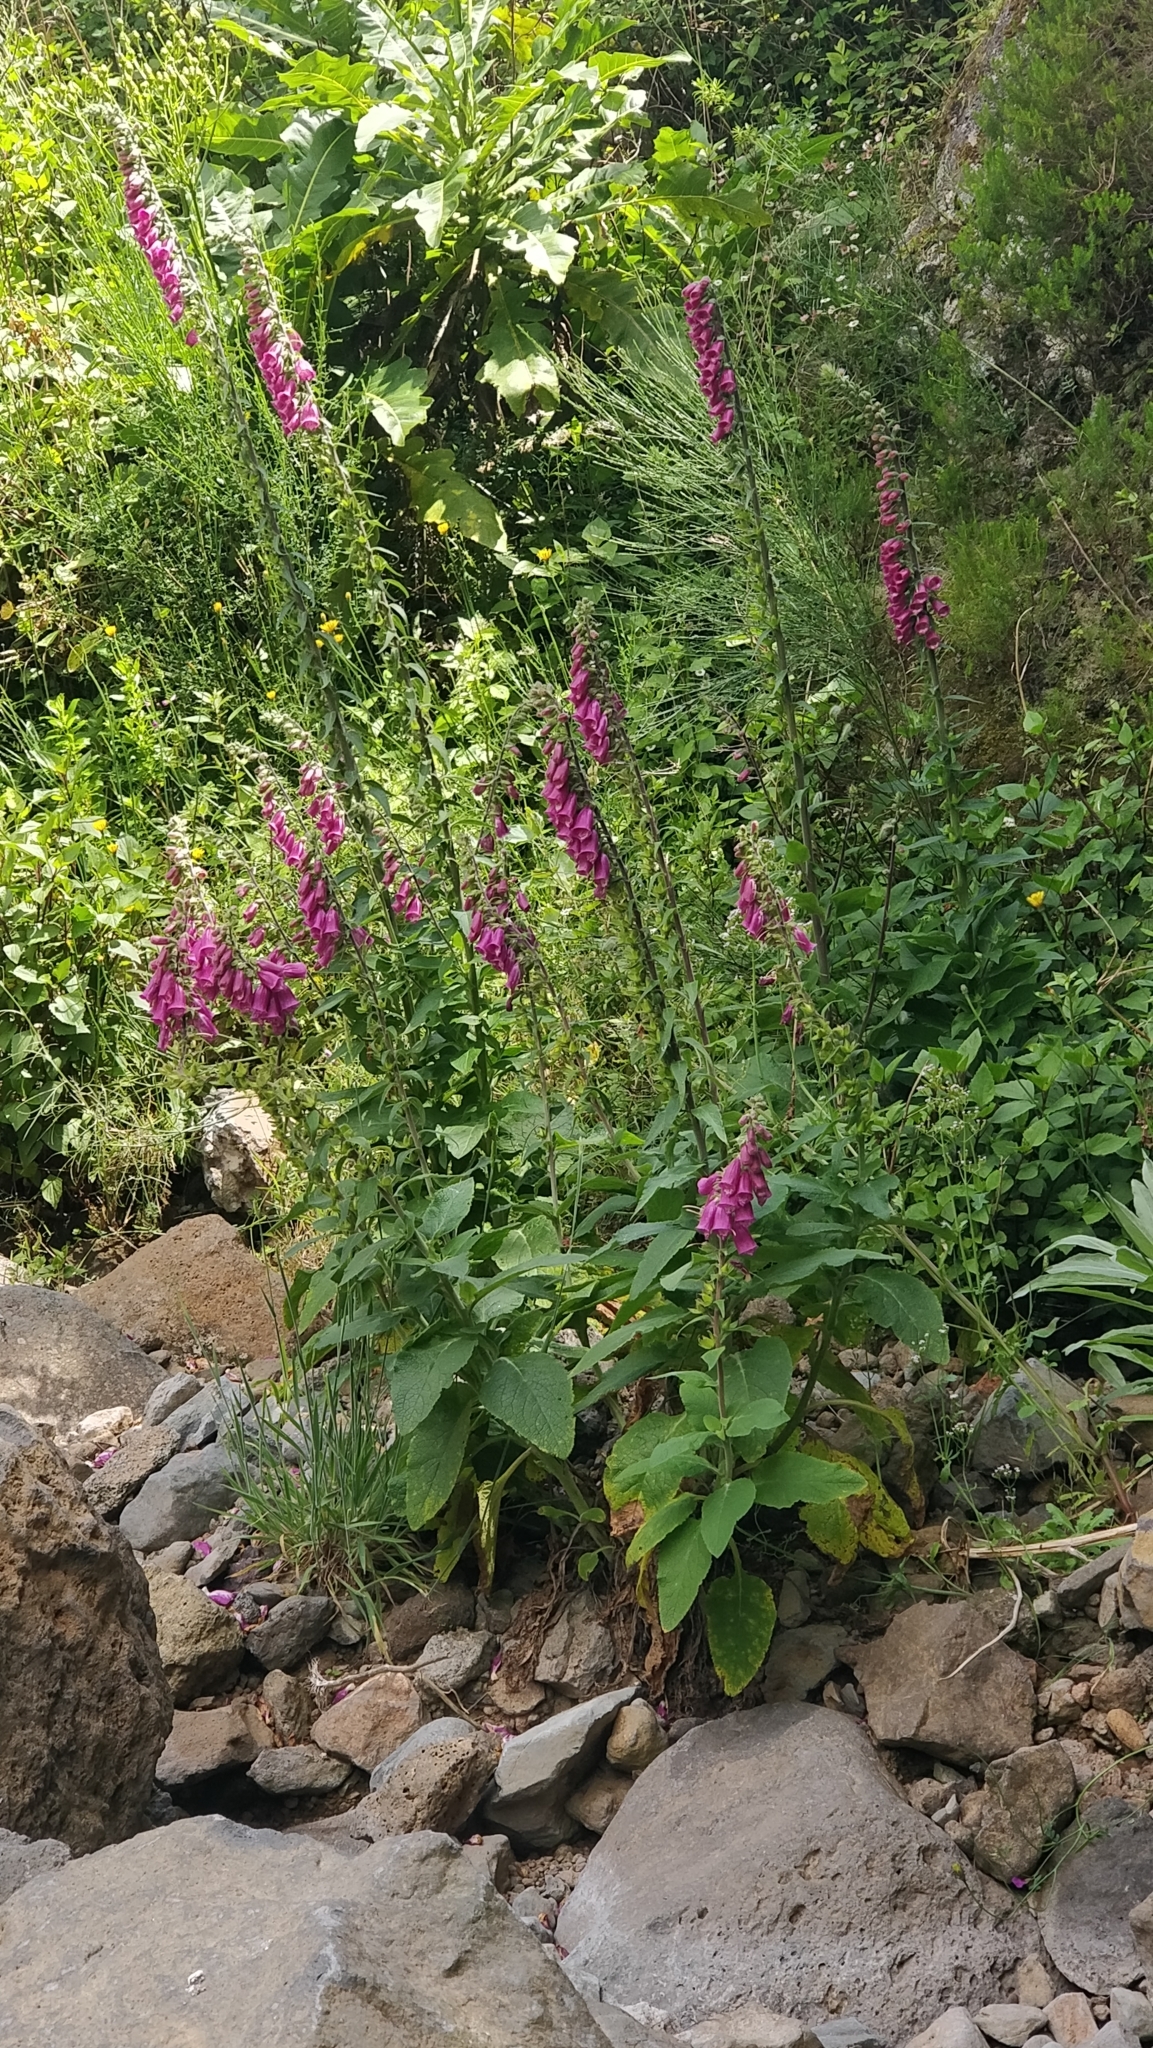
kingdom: Plantae
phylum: Tracheophyta
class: Magnoliopsida
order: Lamiales
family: Plantaginaceae
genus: Digitalis
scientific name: Digitalis purpurea
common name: Foxglove
